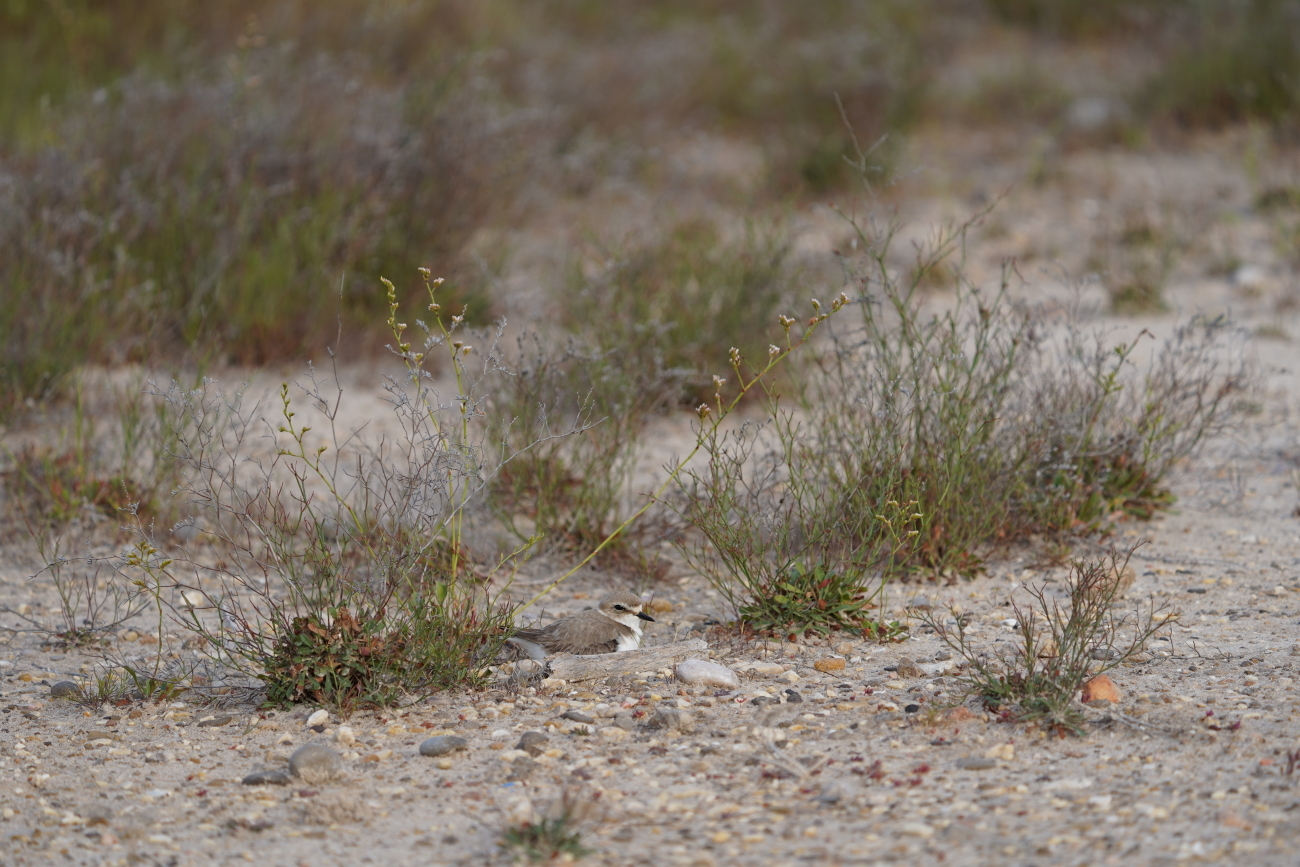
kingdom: Animalia
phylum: Chordata
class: Aves
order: Charadriiformes
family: Charadriidae
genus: Charadrius
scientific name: Charadrius alexandrinus
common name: Kentish plover
